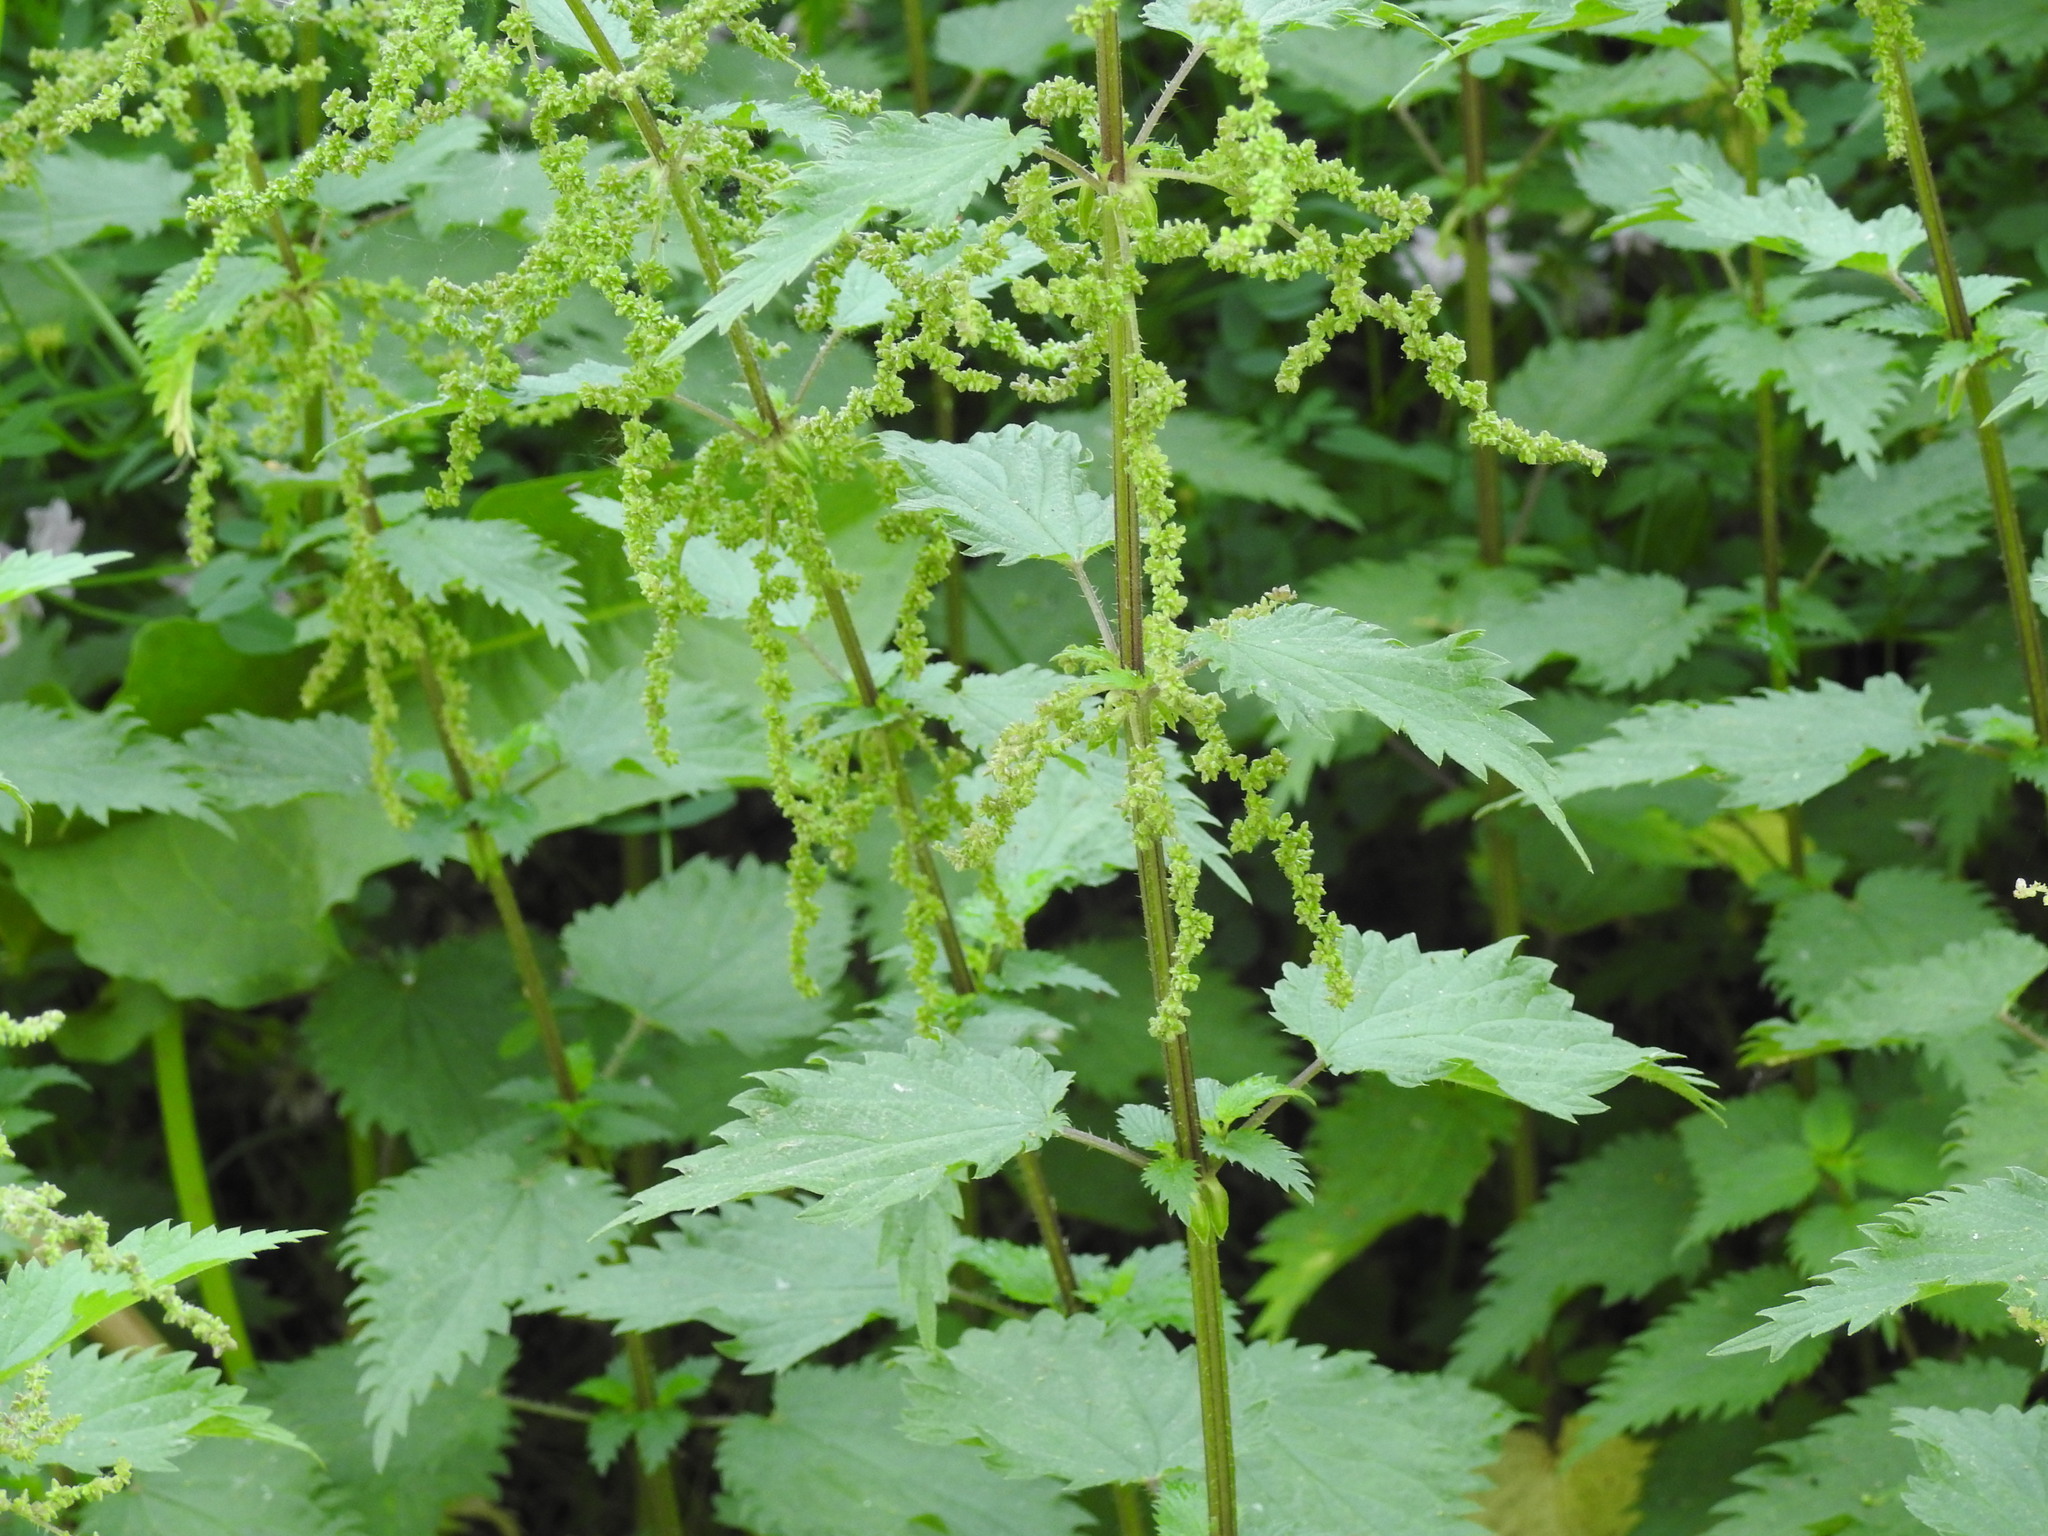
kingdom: Plantae
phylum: Tracheophyta
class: Magnoliopsida
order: Rosales
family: Urticaceae
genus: Urtica
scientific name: Urtica dioica
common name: Common nettle
